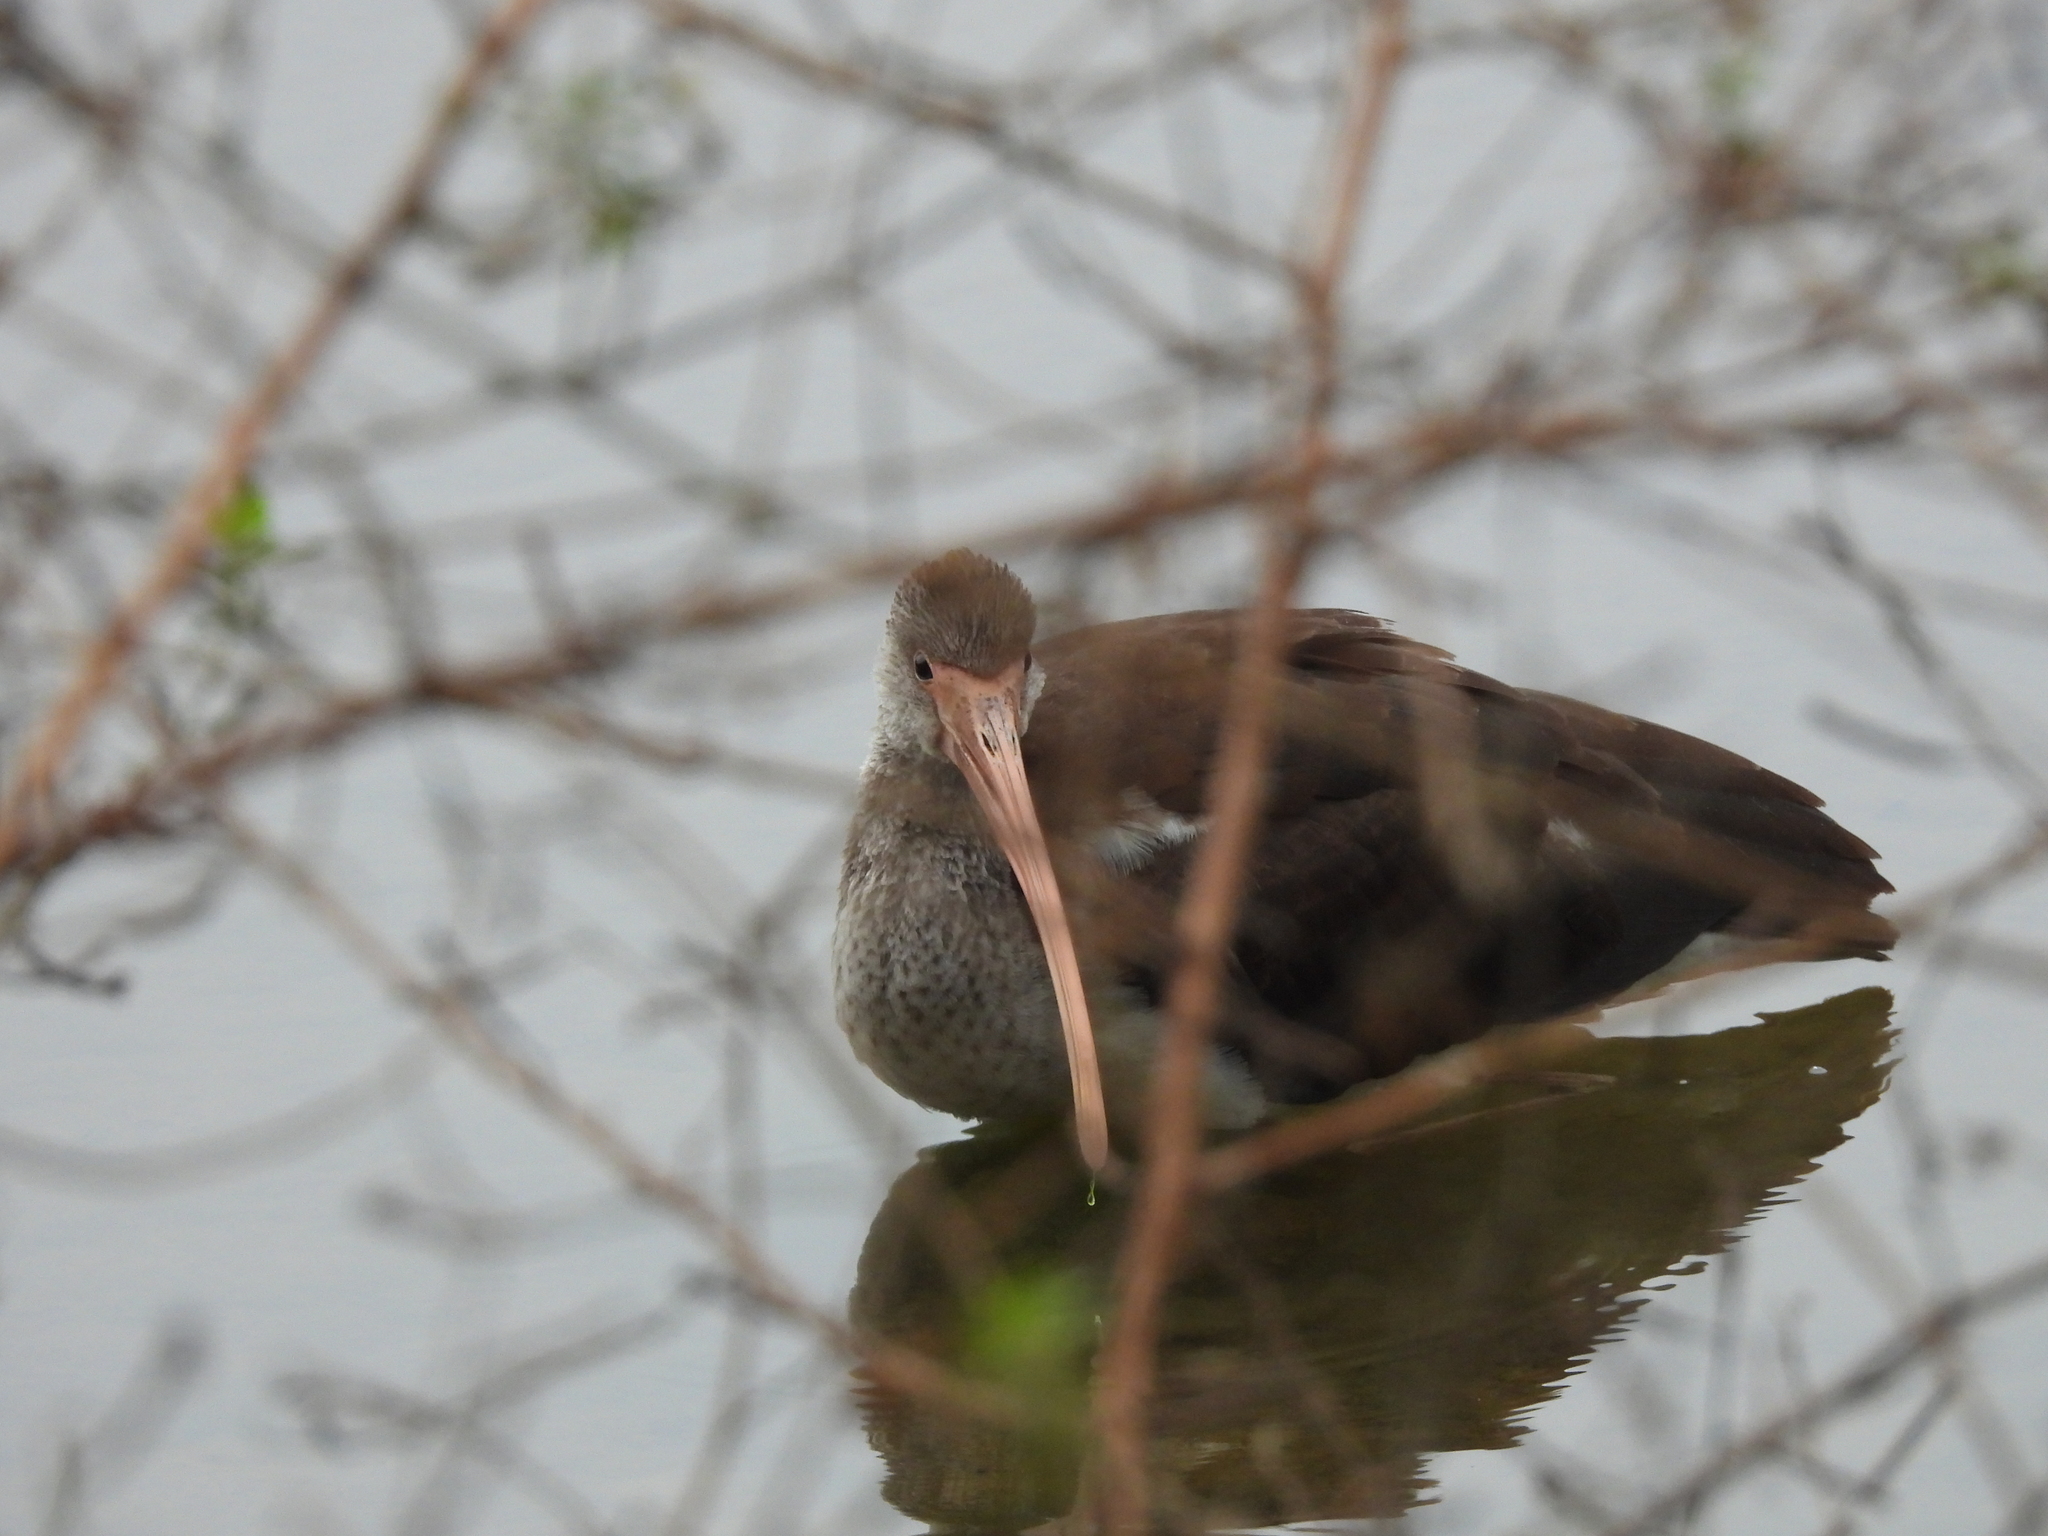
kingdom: Animalia
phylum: Chordata
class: Aves
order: Pelecaniformes
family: Threskiornithidae
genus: Eudocimus
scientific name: Eudocimus albus
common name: White ibis
